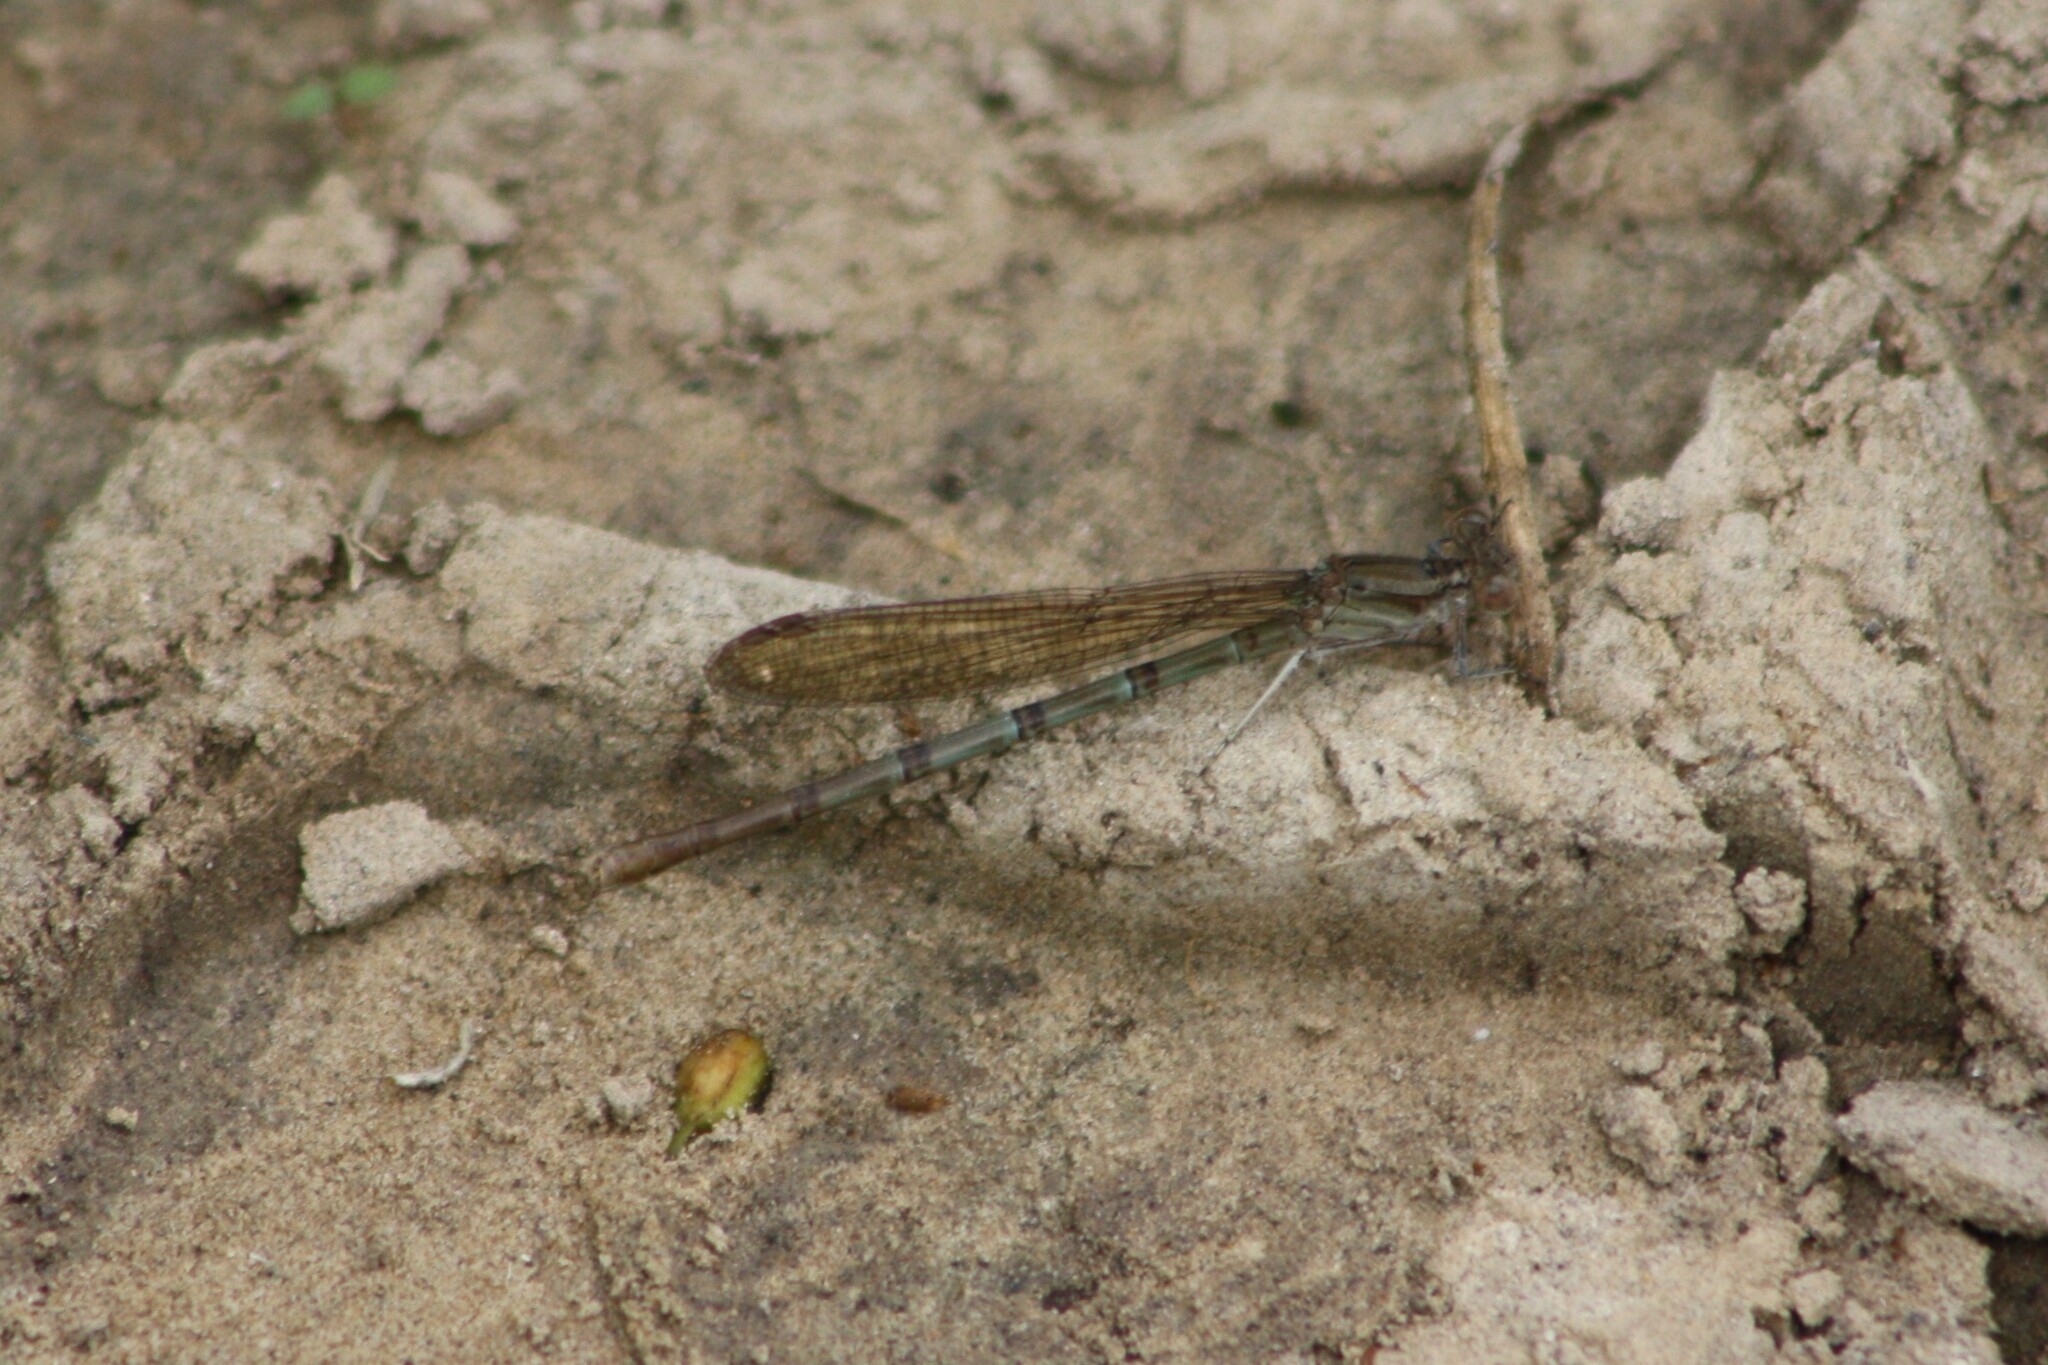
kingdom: Animalia
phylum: Arthropoda
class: Insecta
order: Odonata
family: Coenagrionidae
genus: Argia
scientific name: Argia sedula
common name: Blue-ringed dancer
